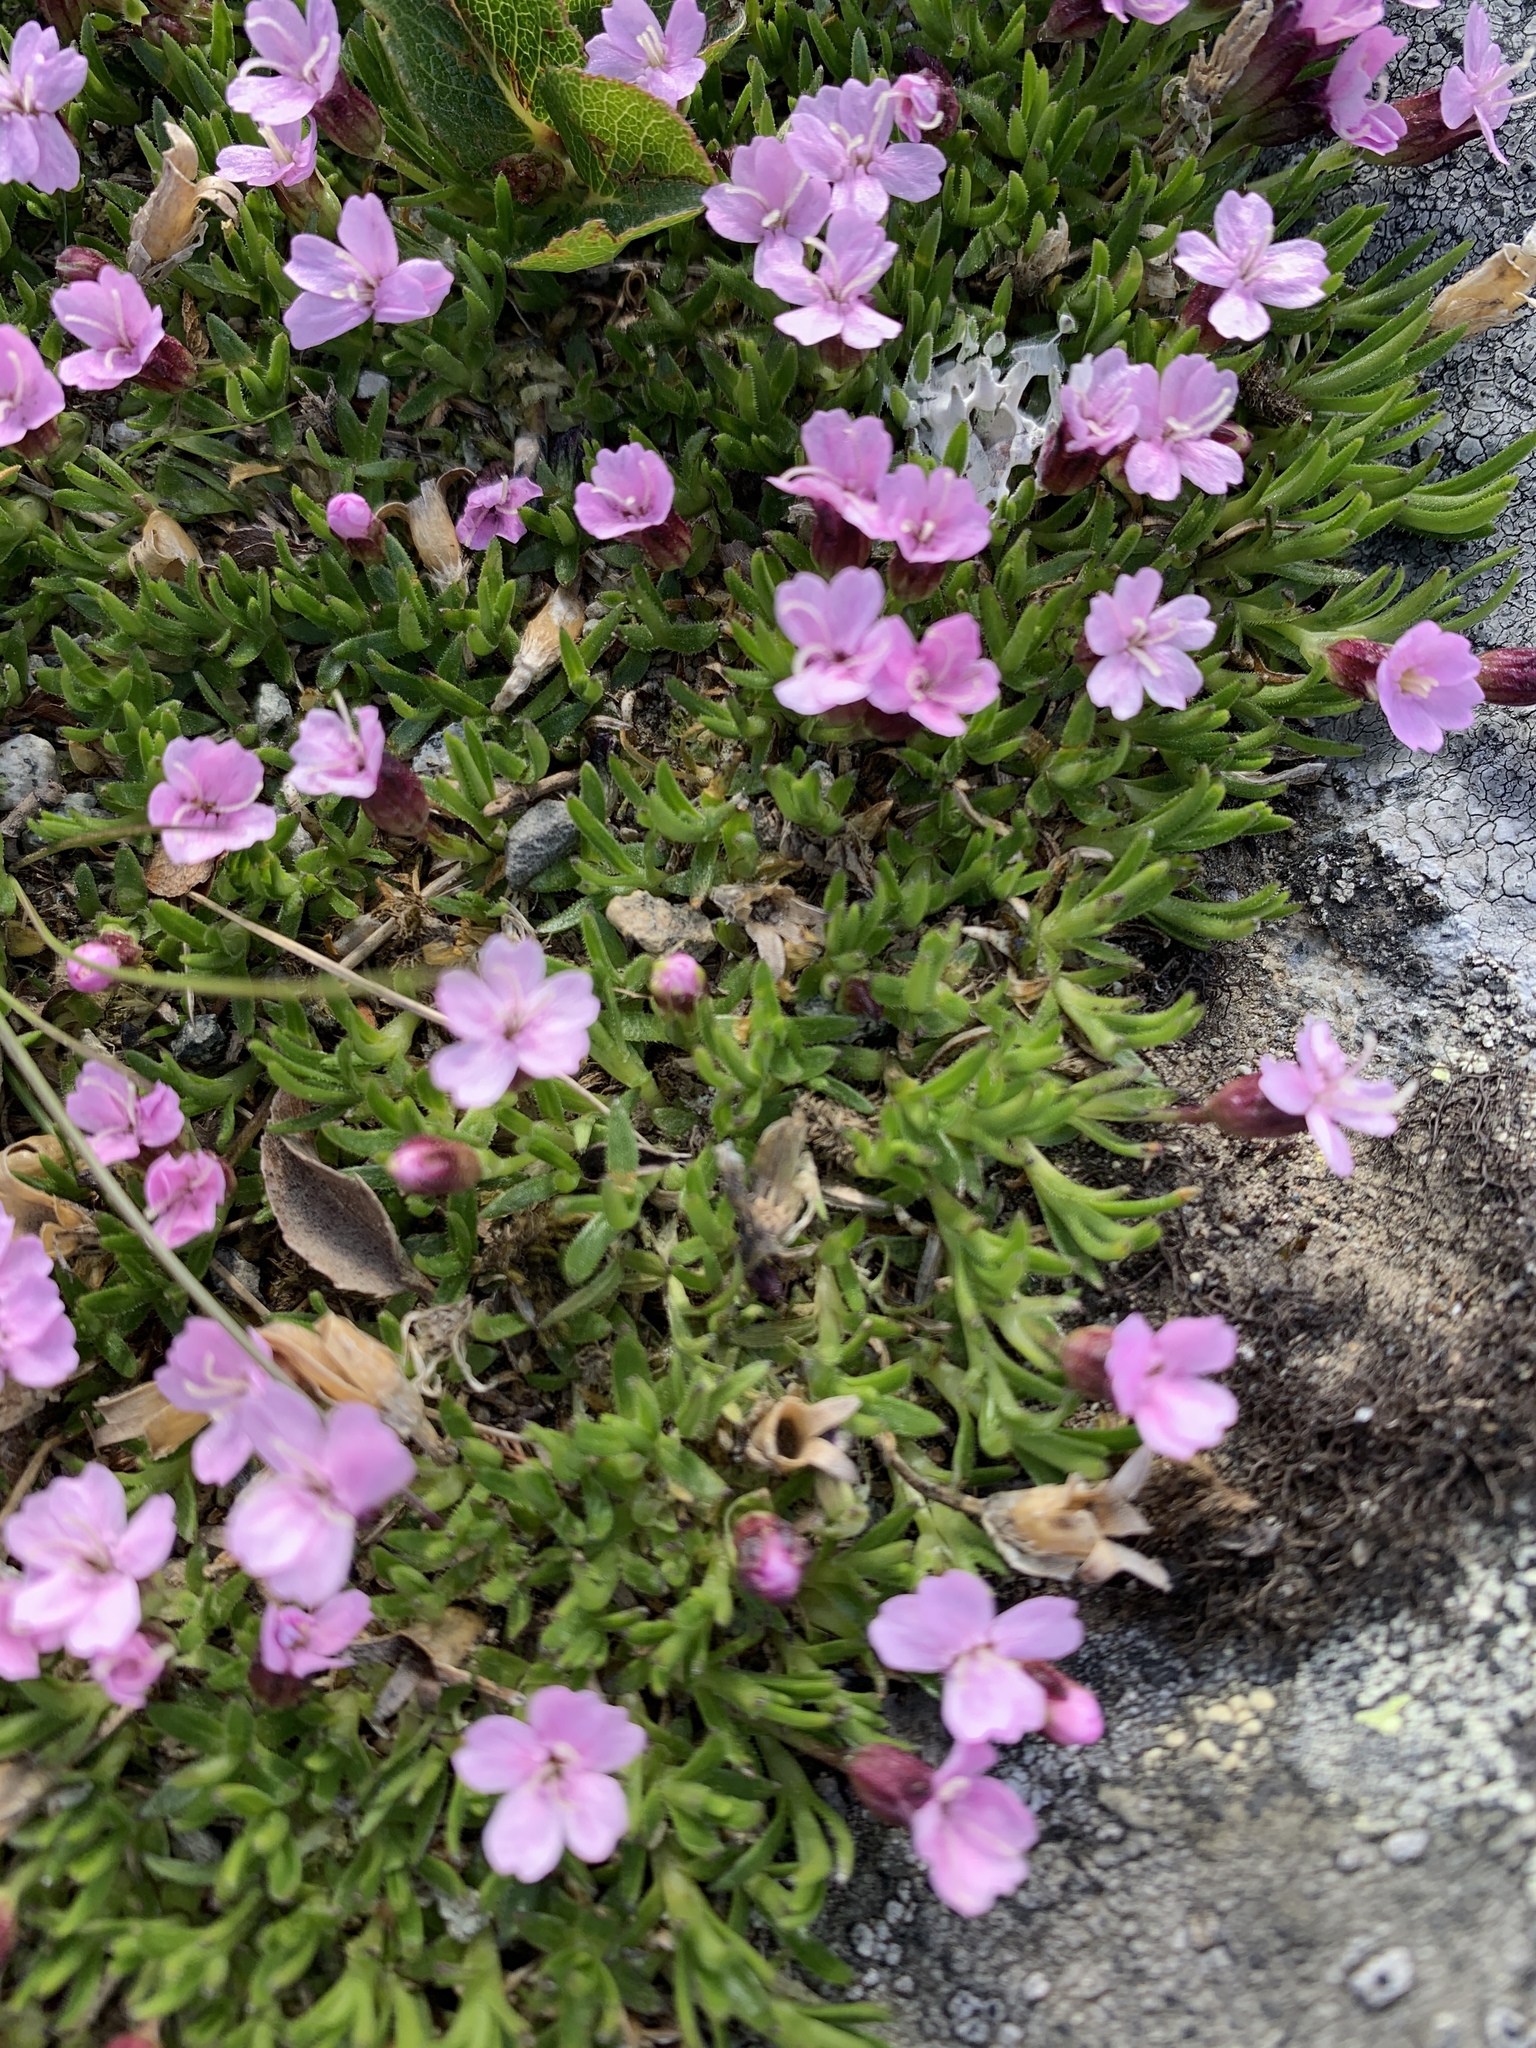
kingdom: Plantae
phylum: Tracheophyta
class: Magnoliopsida
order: Caryophyllales
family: Caryophyllaceae
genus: Silene
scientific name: Silene acaulis
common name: Moss campion
